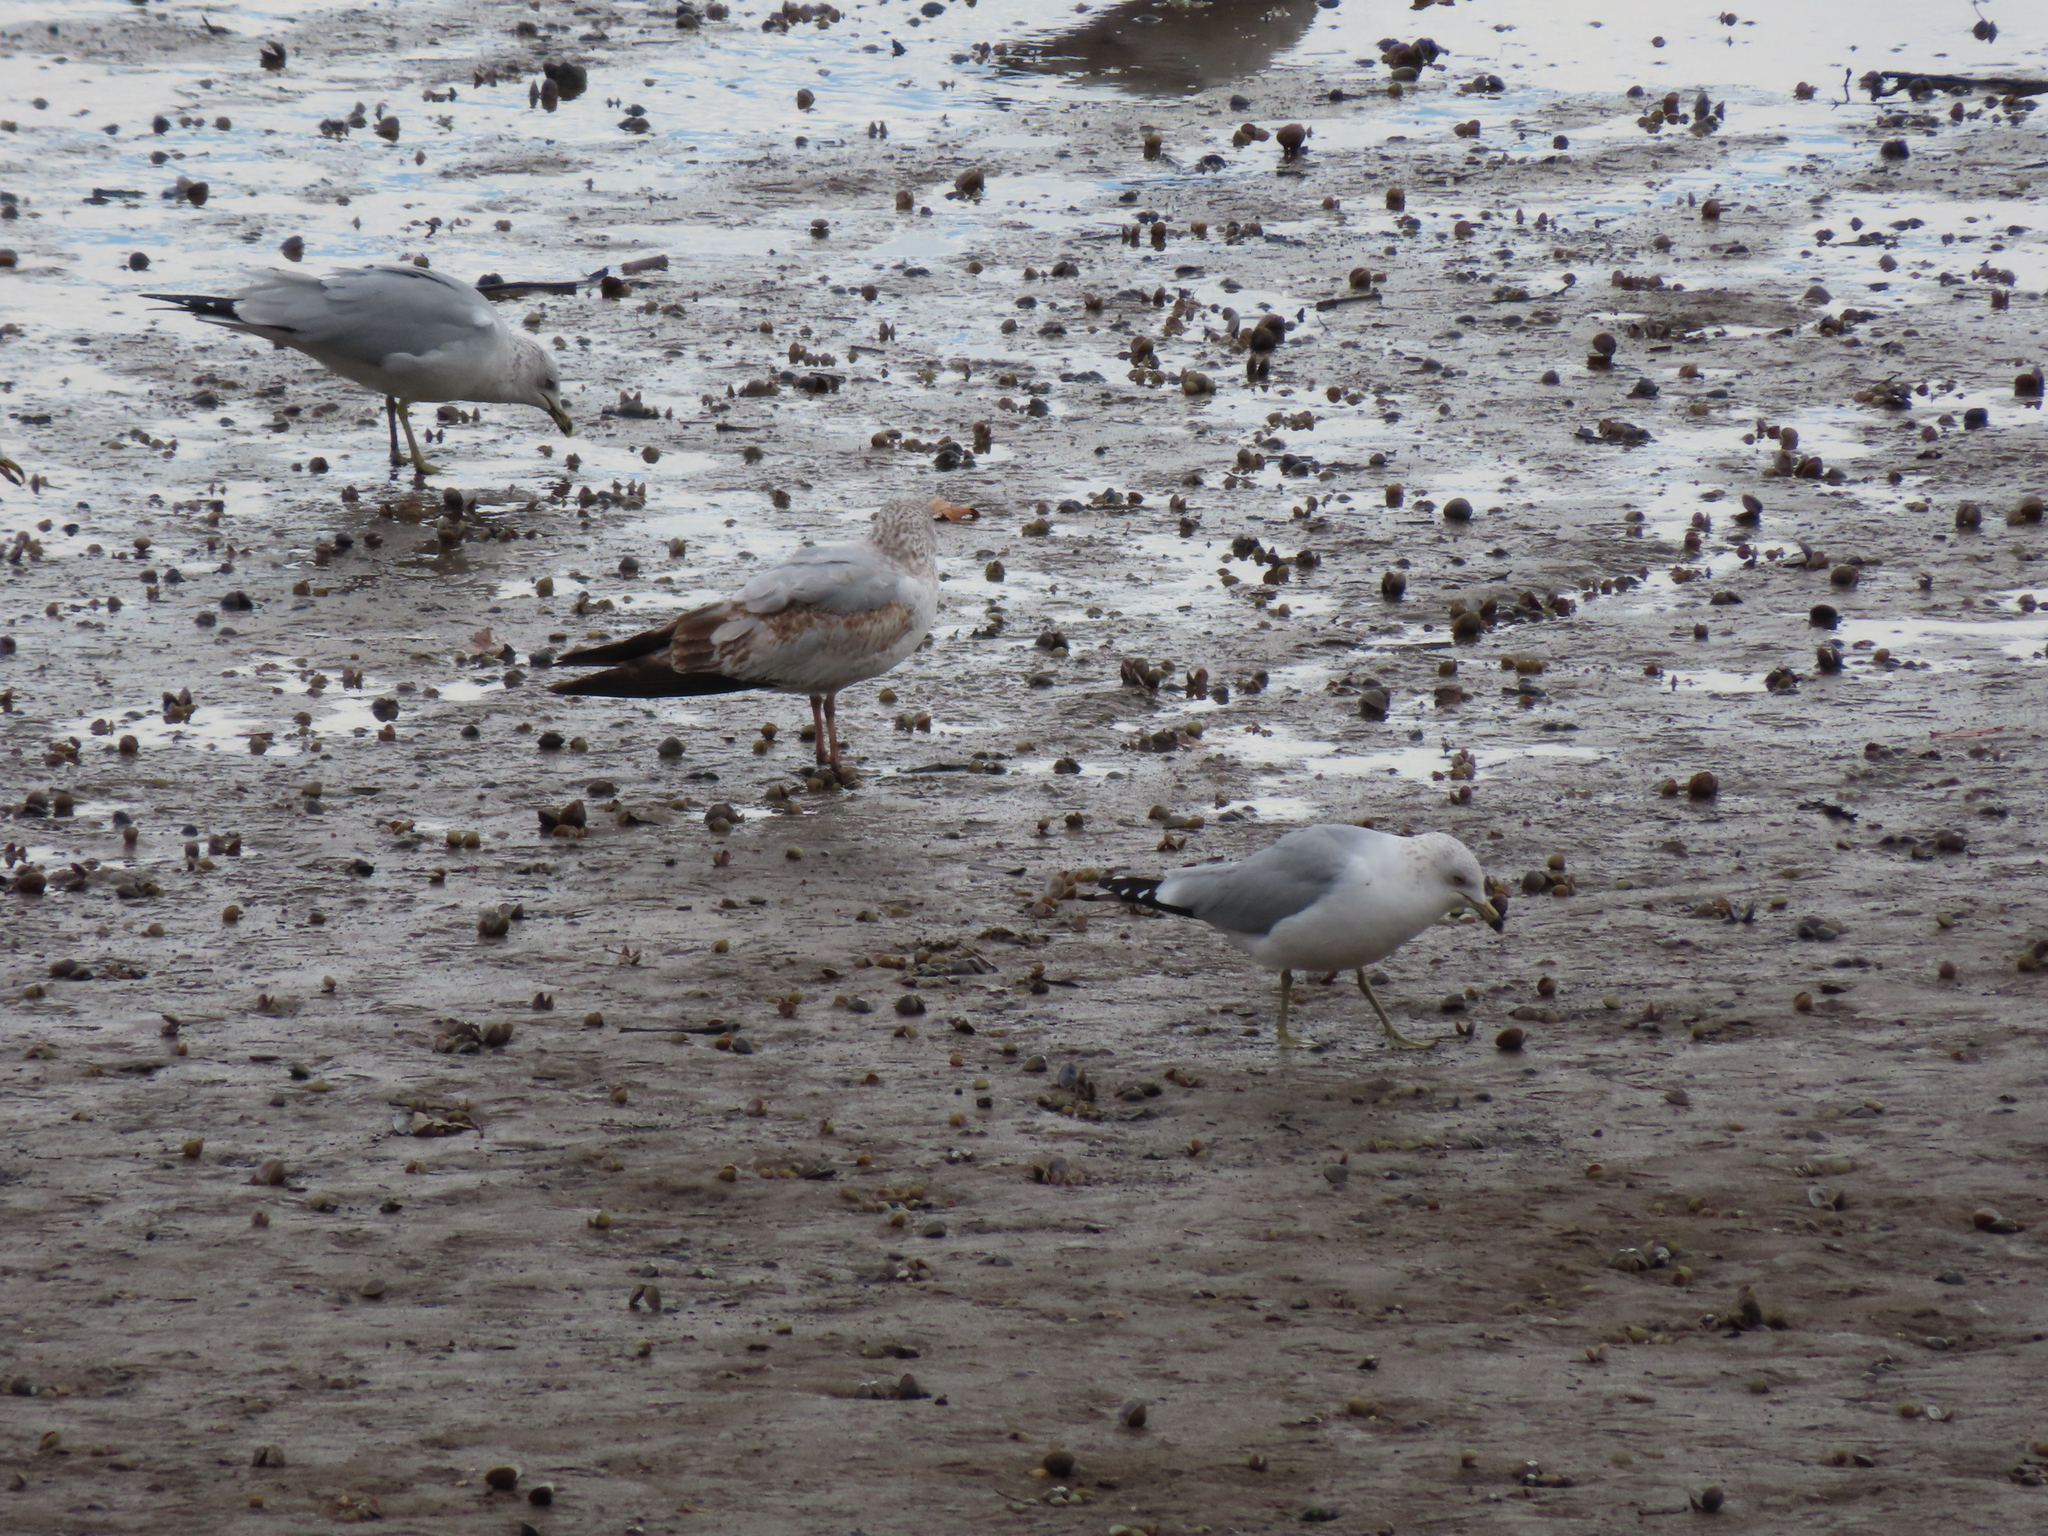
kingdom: Animalia
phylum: Chordata
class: Aves
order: Charadriiformes
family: Laridae
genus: Larus
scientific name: Larus delawarensis
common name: Ring-billed gull
